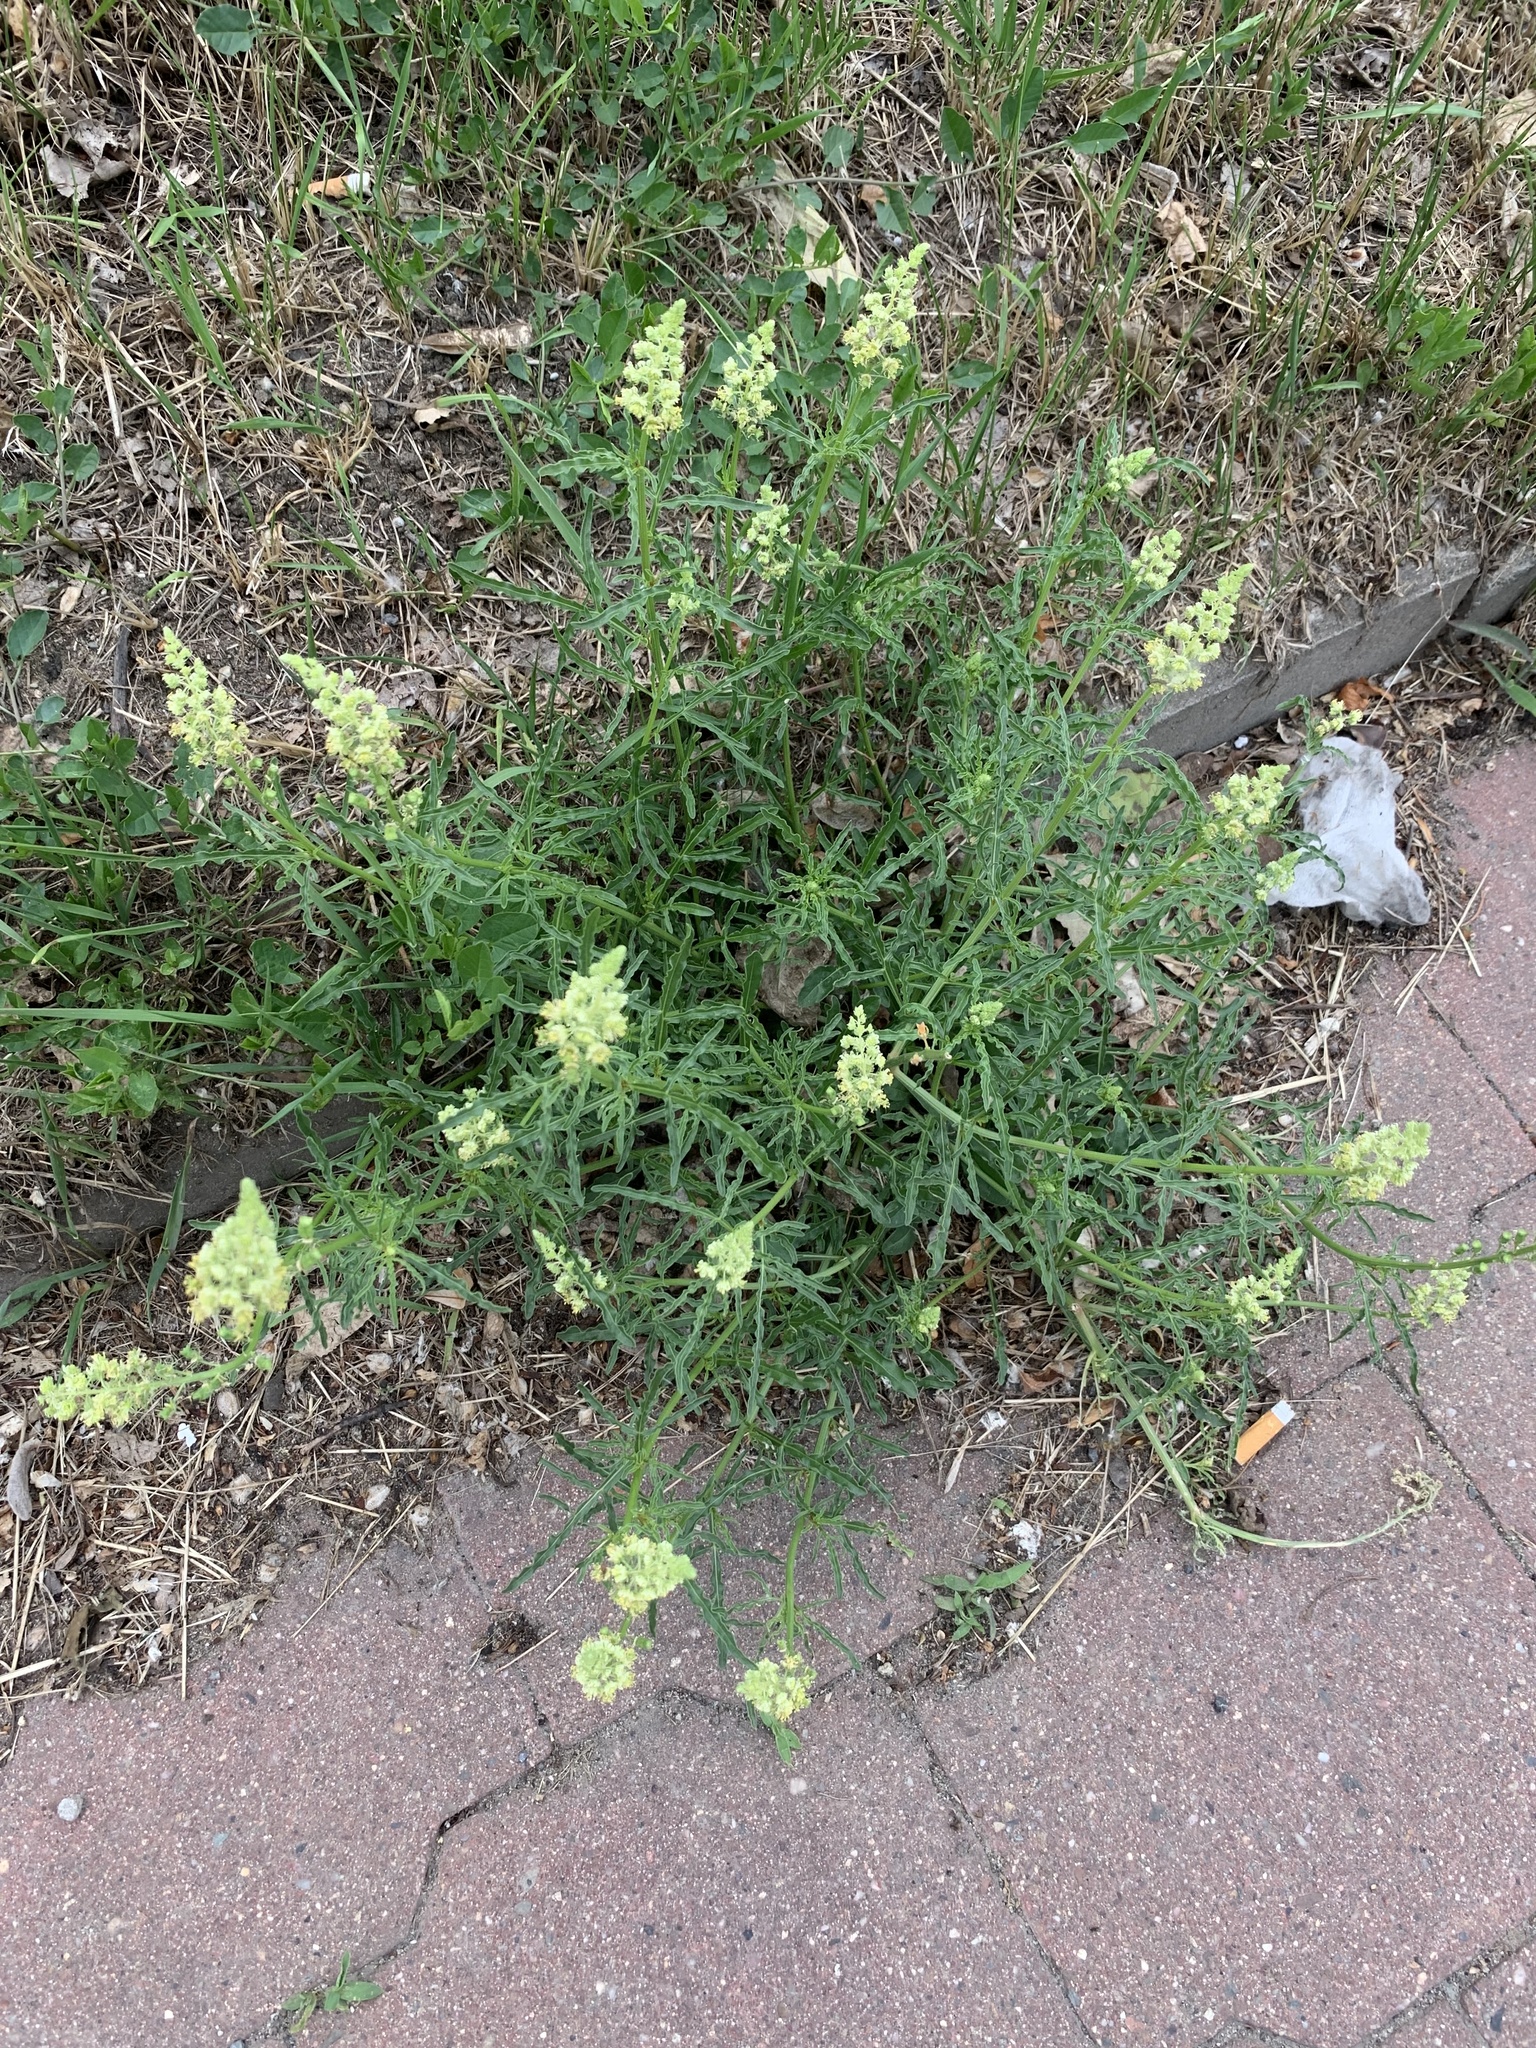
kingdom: Plantae
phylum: Tracheophyta
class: Magnoliopsida
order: Brassicales
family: Resedaceae
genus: Reseda
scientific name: Reseda lutea
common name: Wild mignonette
